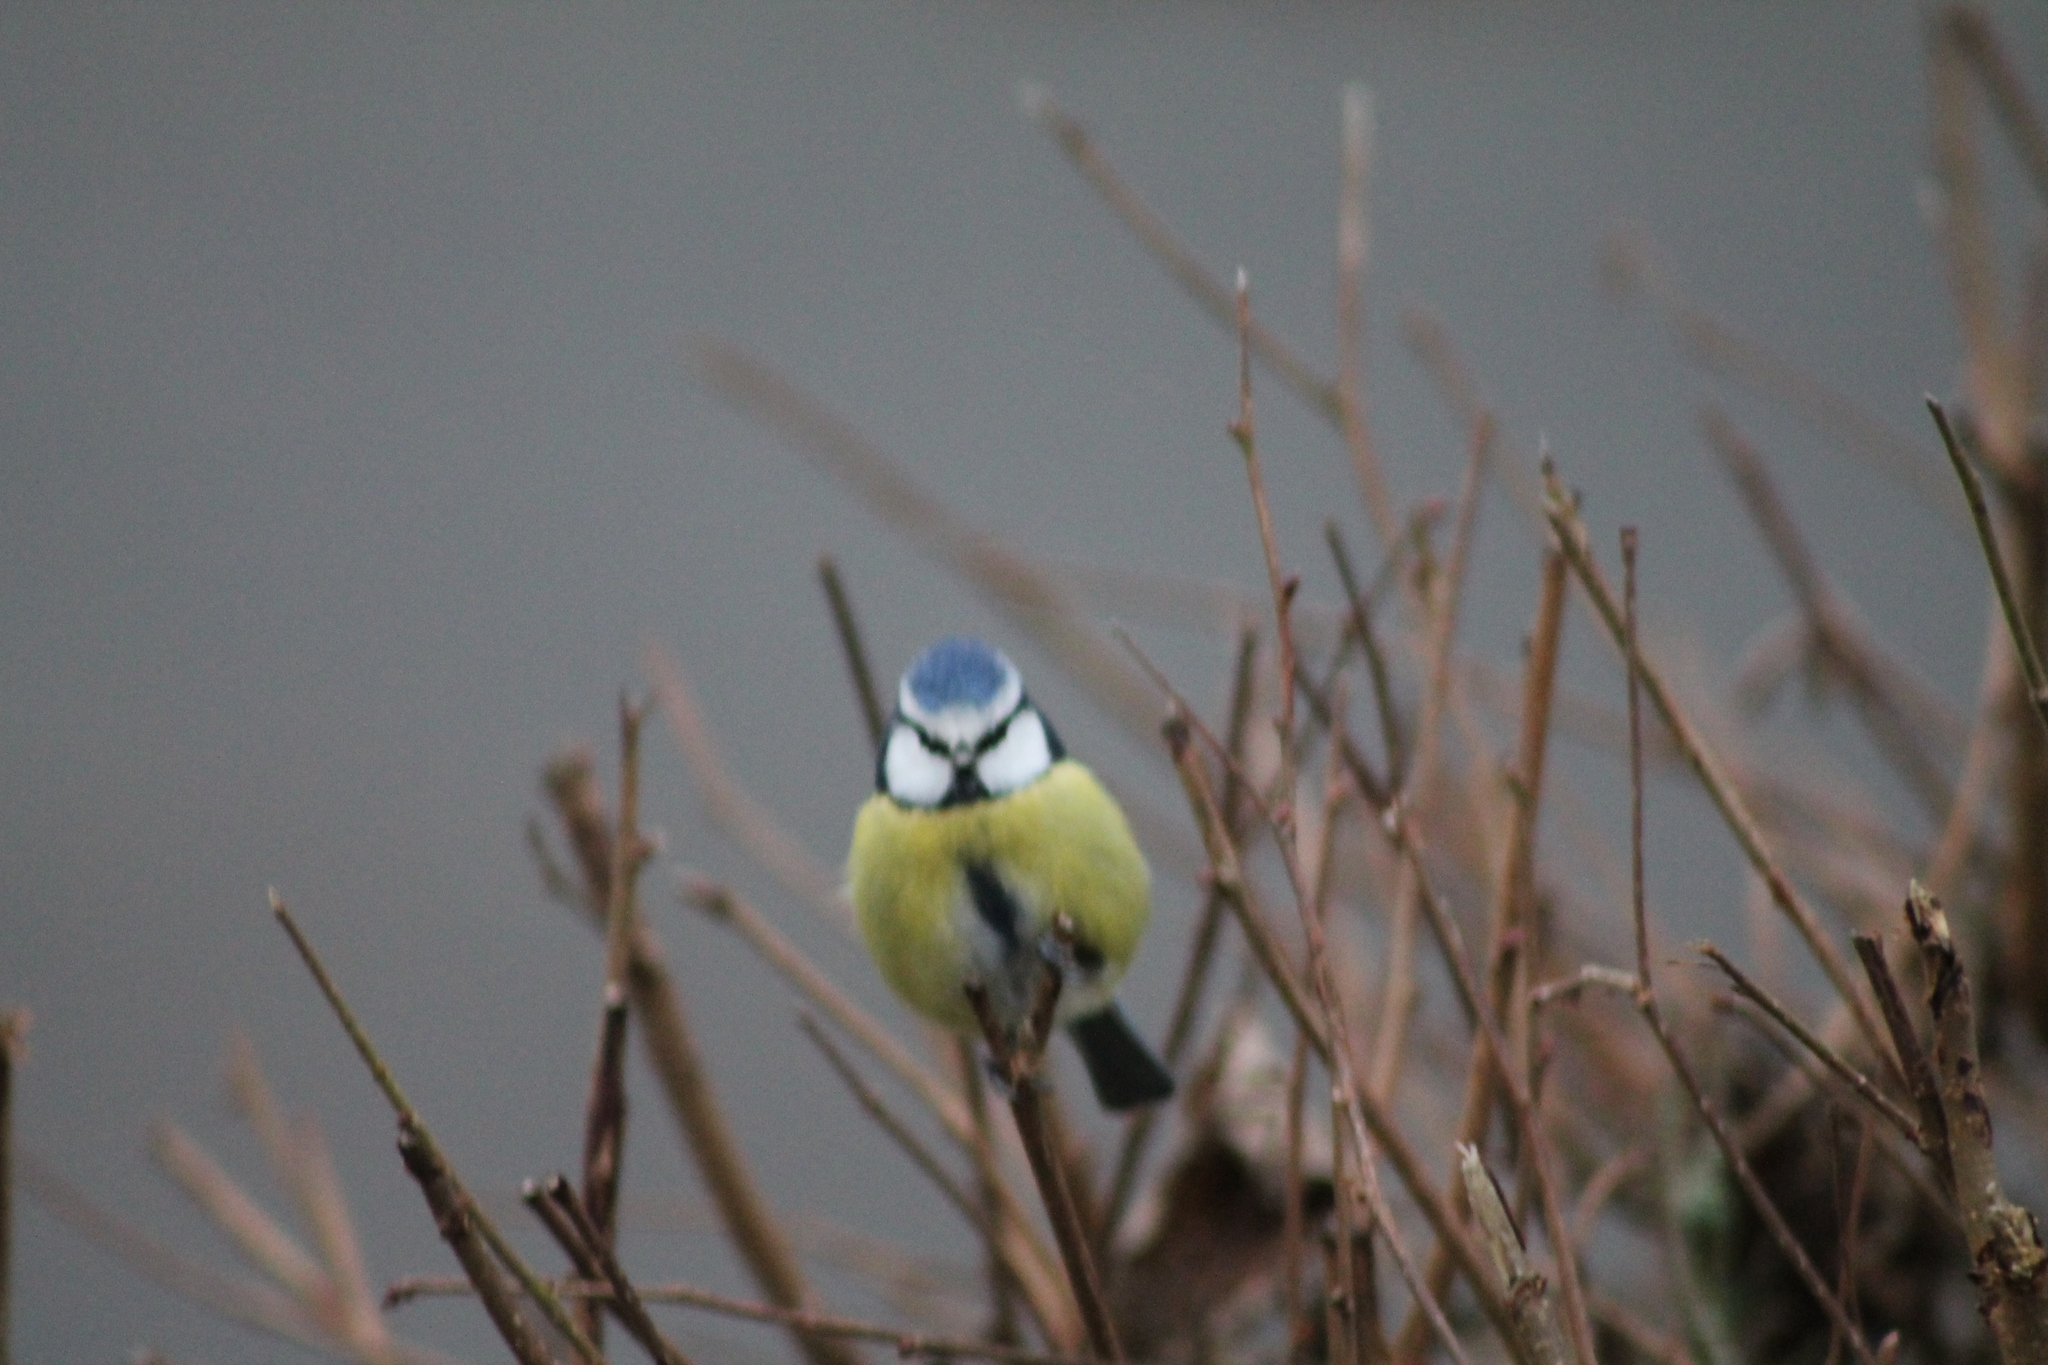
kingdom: Animalia
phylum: Chordata
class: Aves
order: Passeriformes
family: Paridae
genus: Cyanistes
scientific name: Cyanistes caeruleus
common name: Eurasian blue tit
